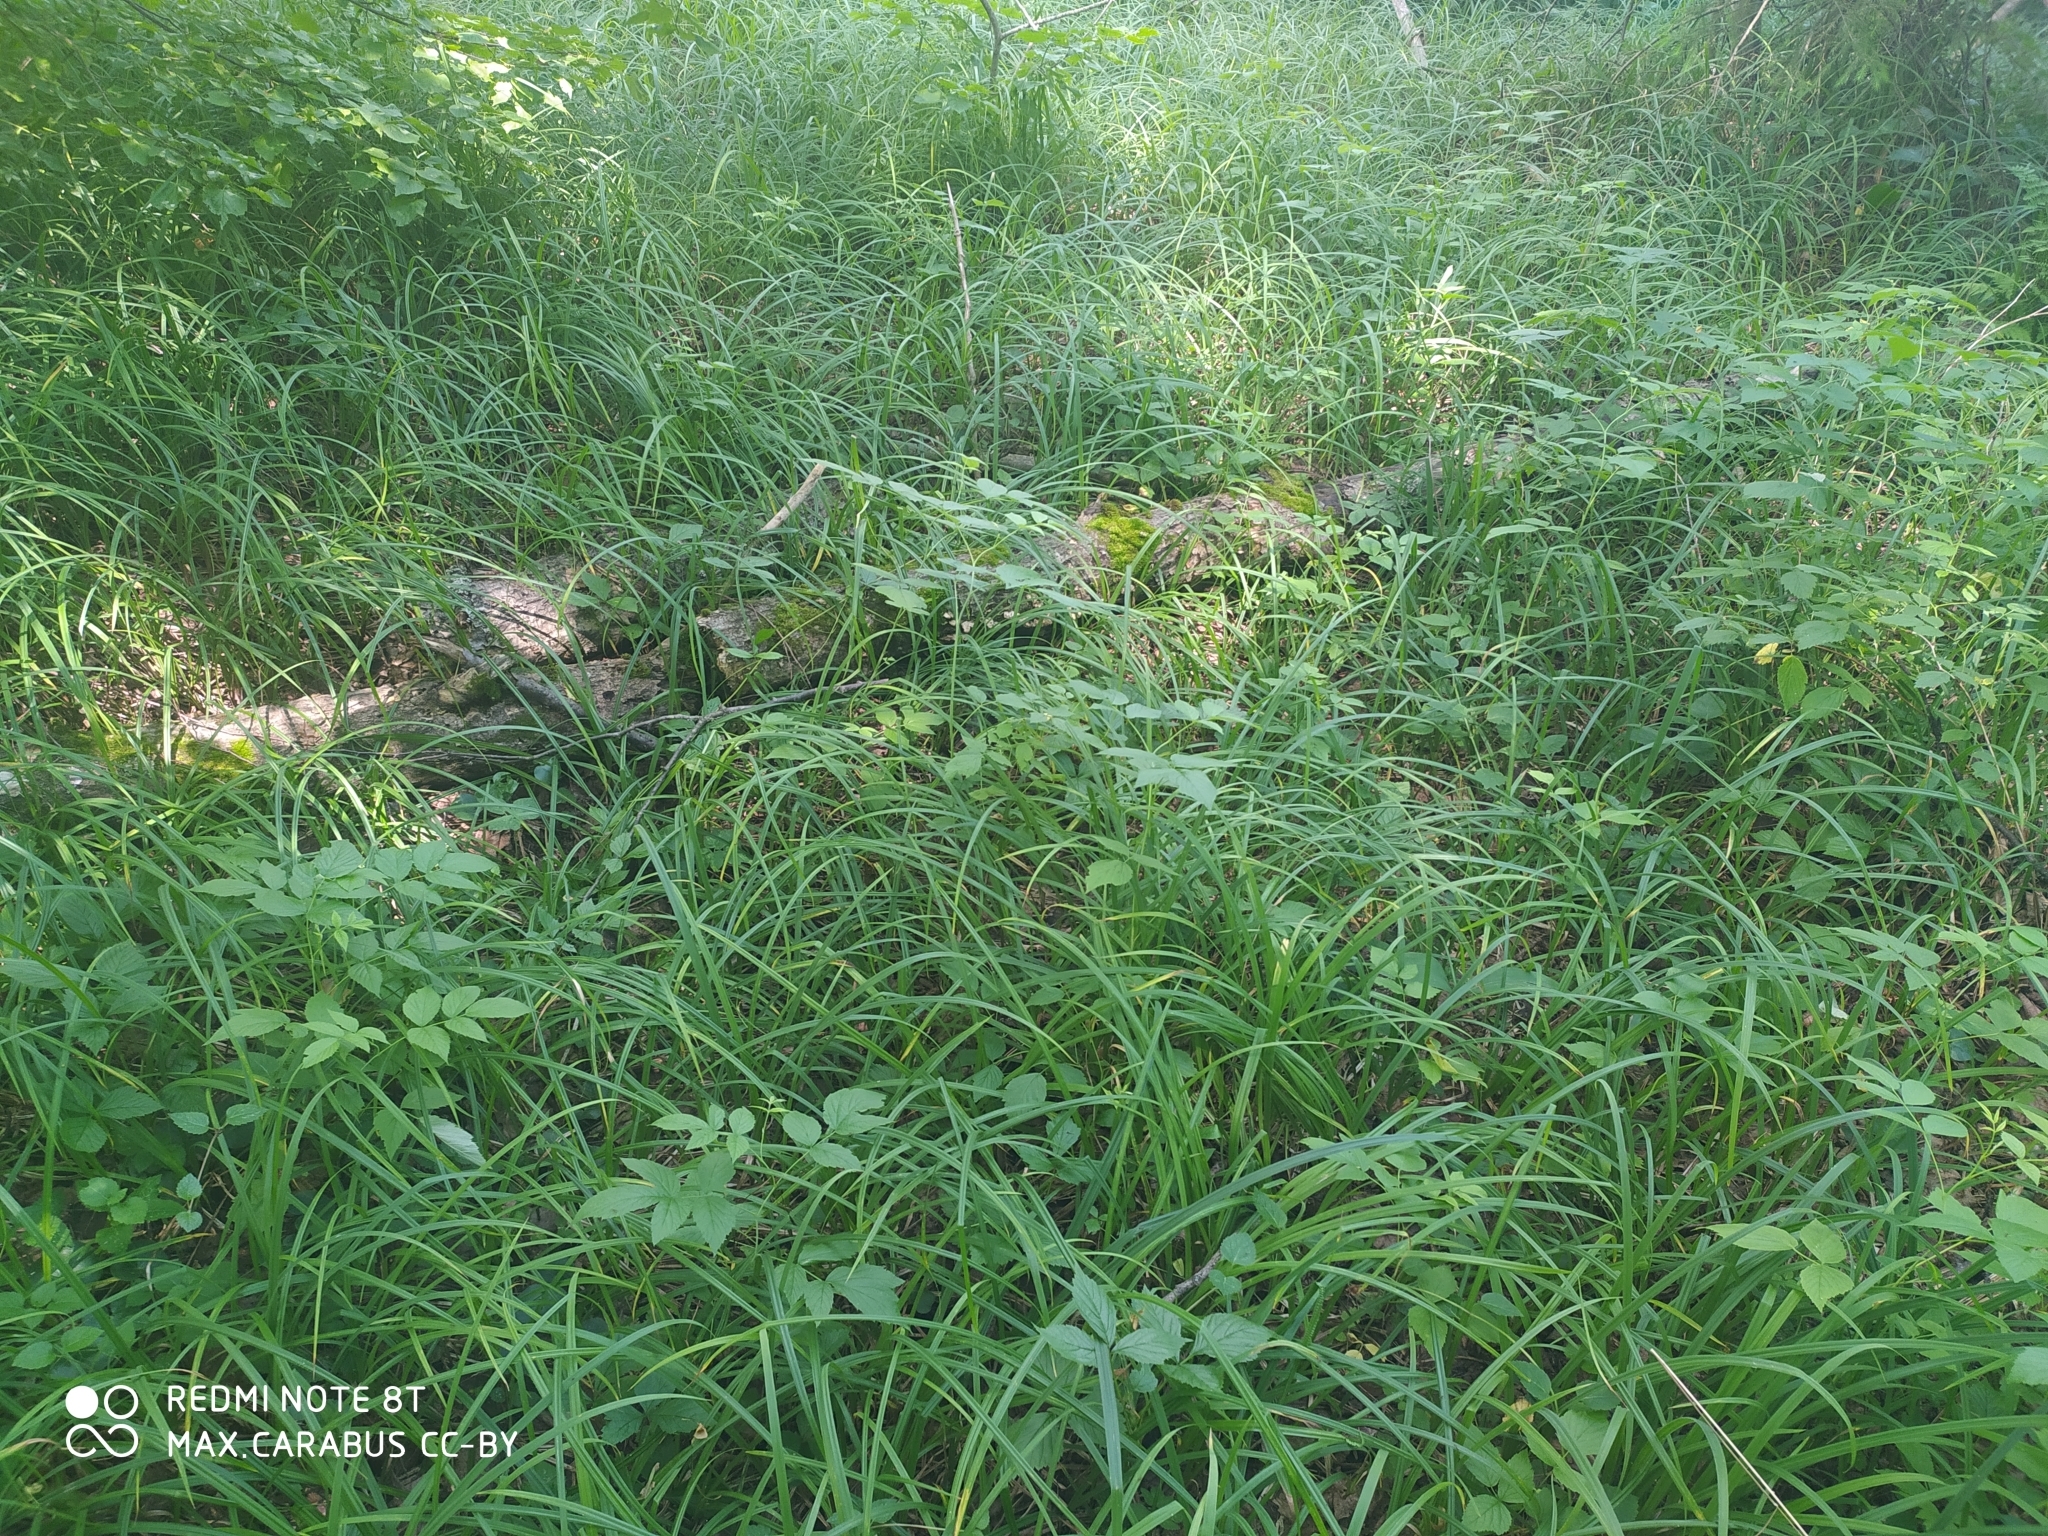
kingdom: Plantae
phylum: Tracheophyta
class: Liliopsida
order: Poales
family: Cyperaceae
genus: Carex
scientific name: Carex pilosa
